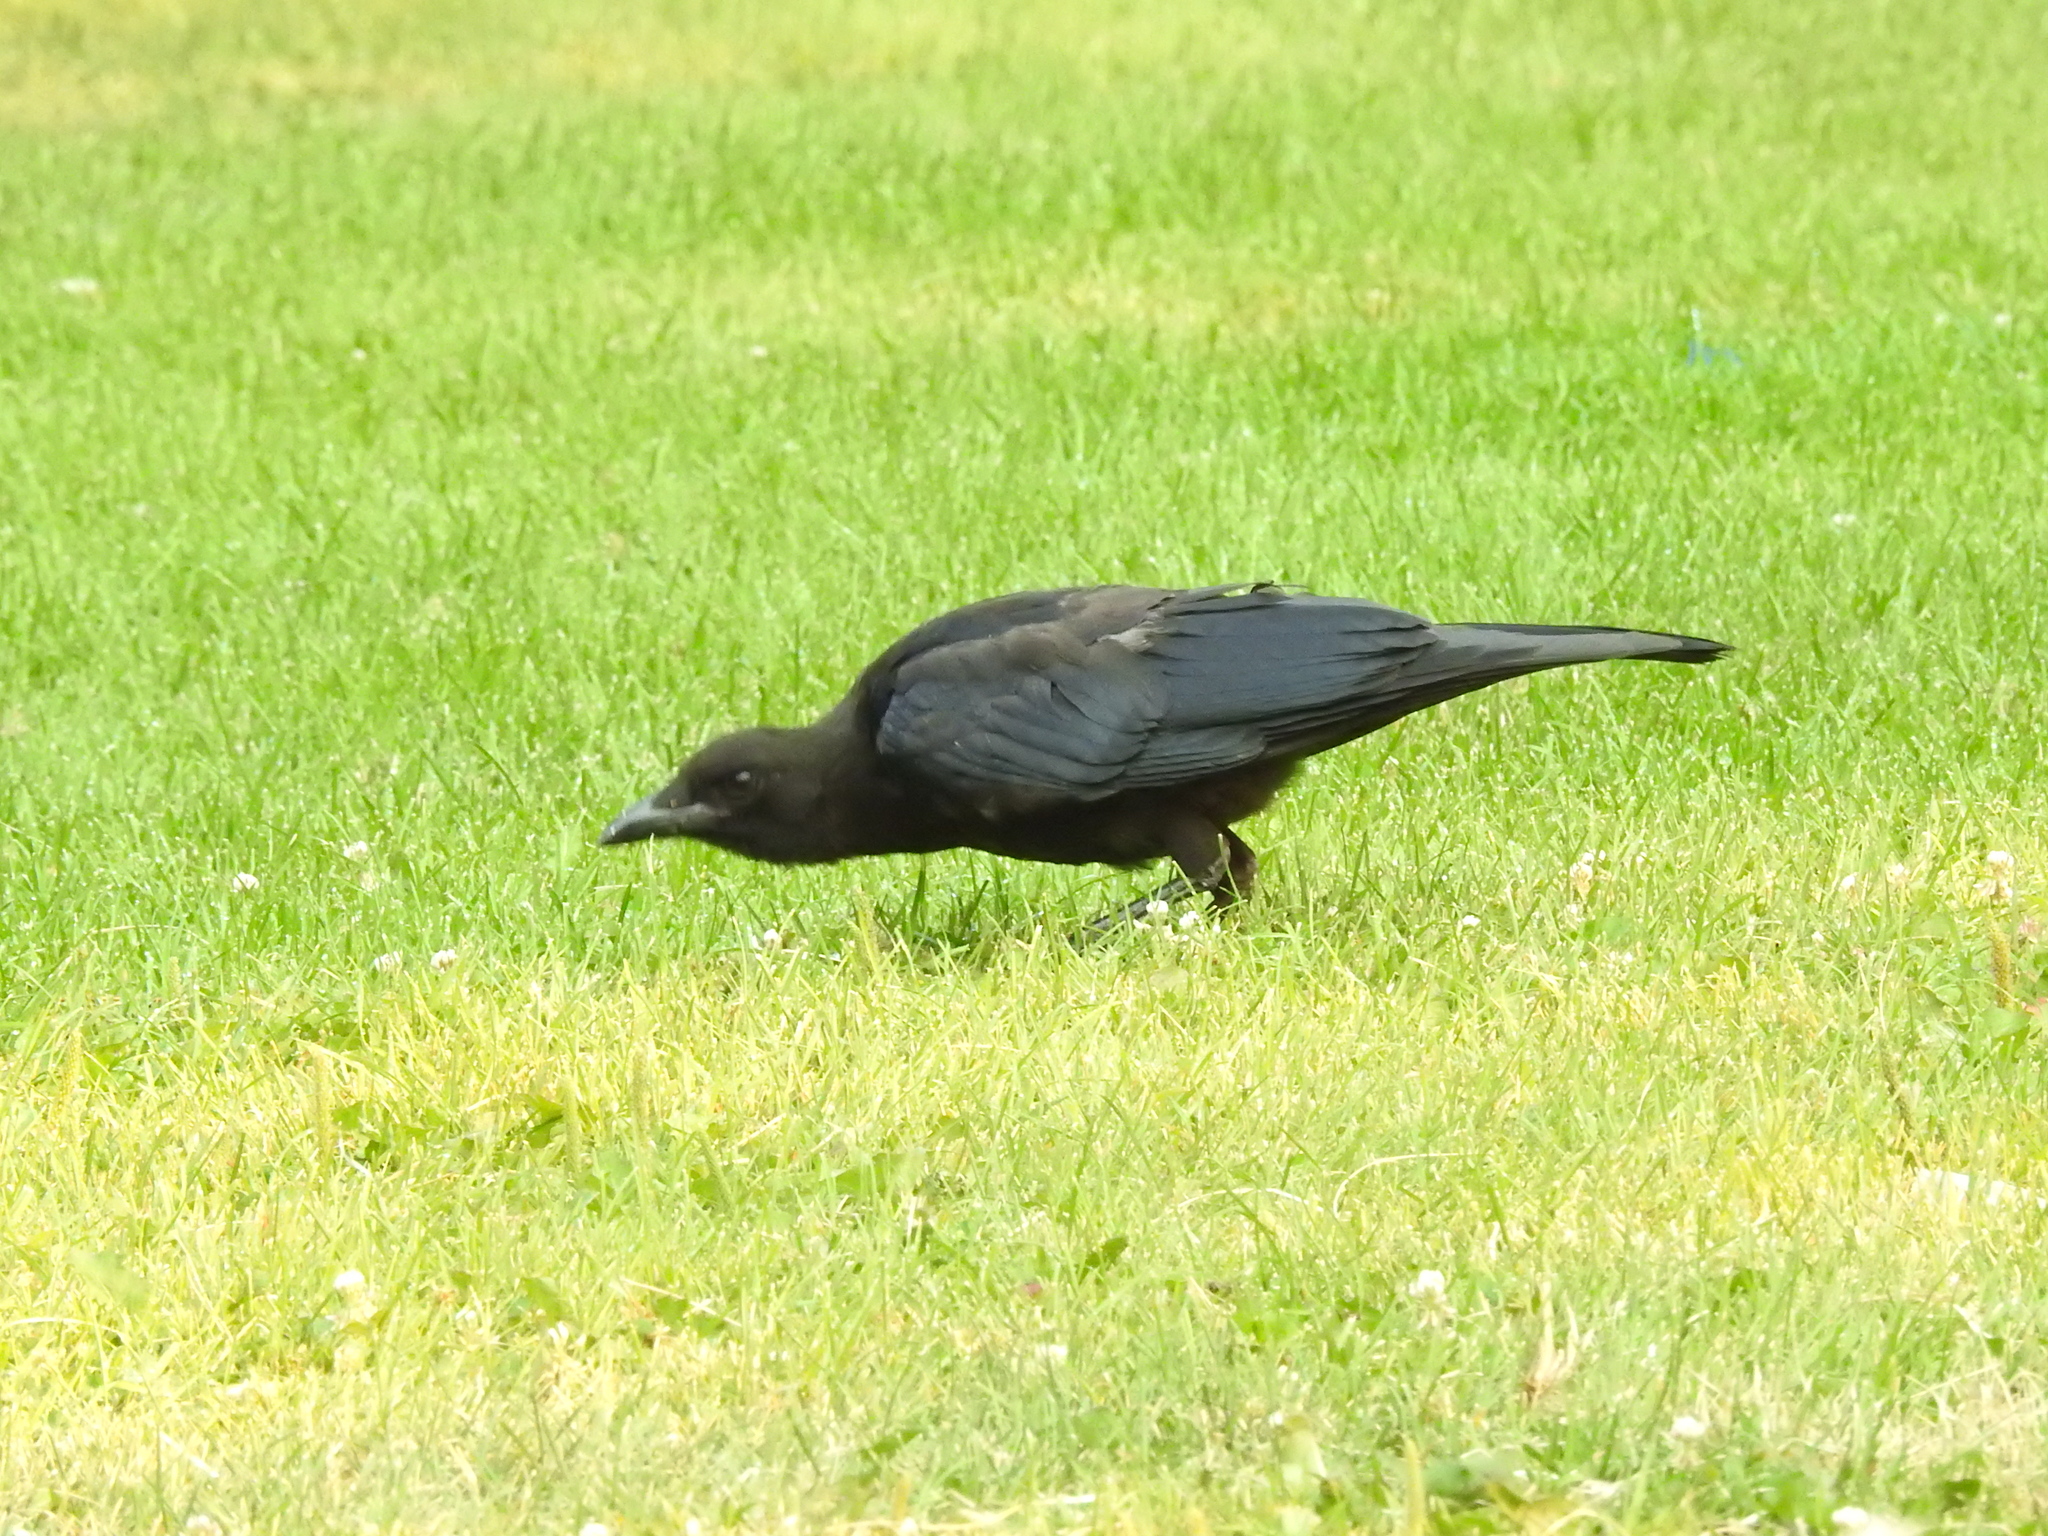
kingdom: Animalia
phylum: Chordata
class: Aves
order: Passeriformes
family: Corvidae
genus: Corvus
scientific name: Corvus brachyrhynchos
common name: American crow
